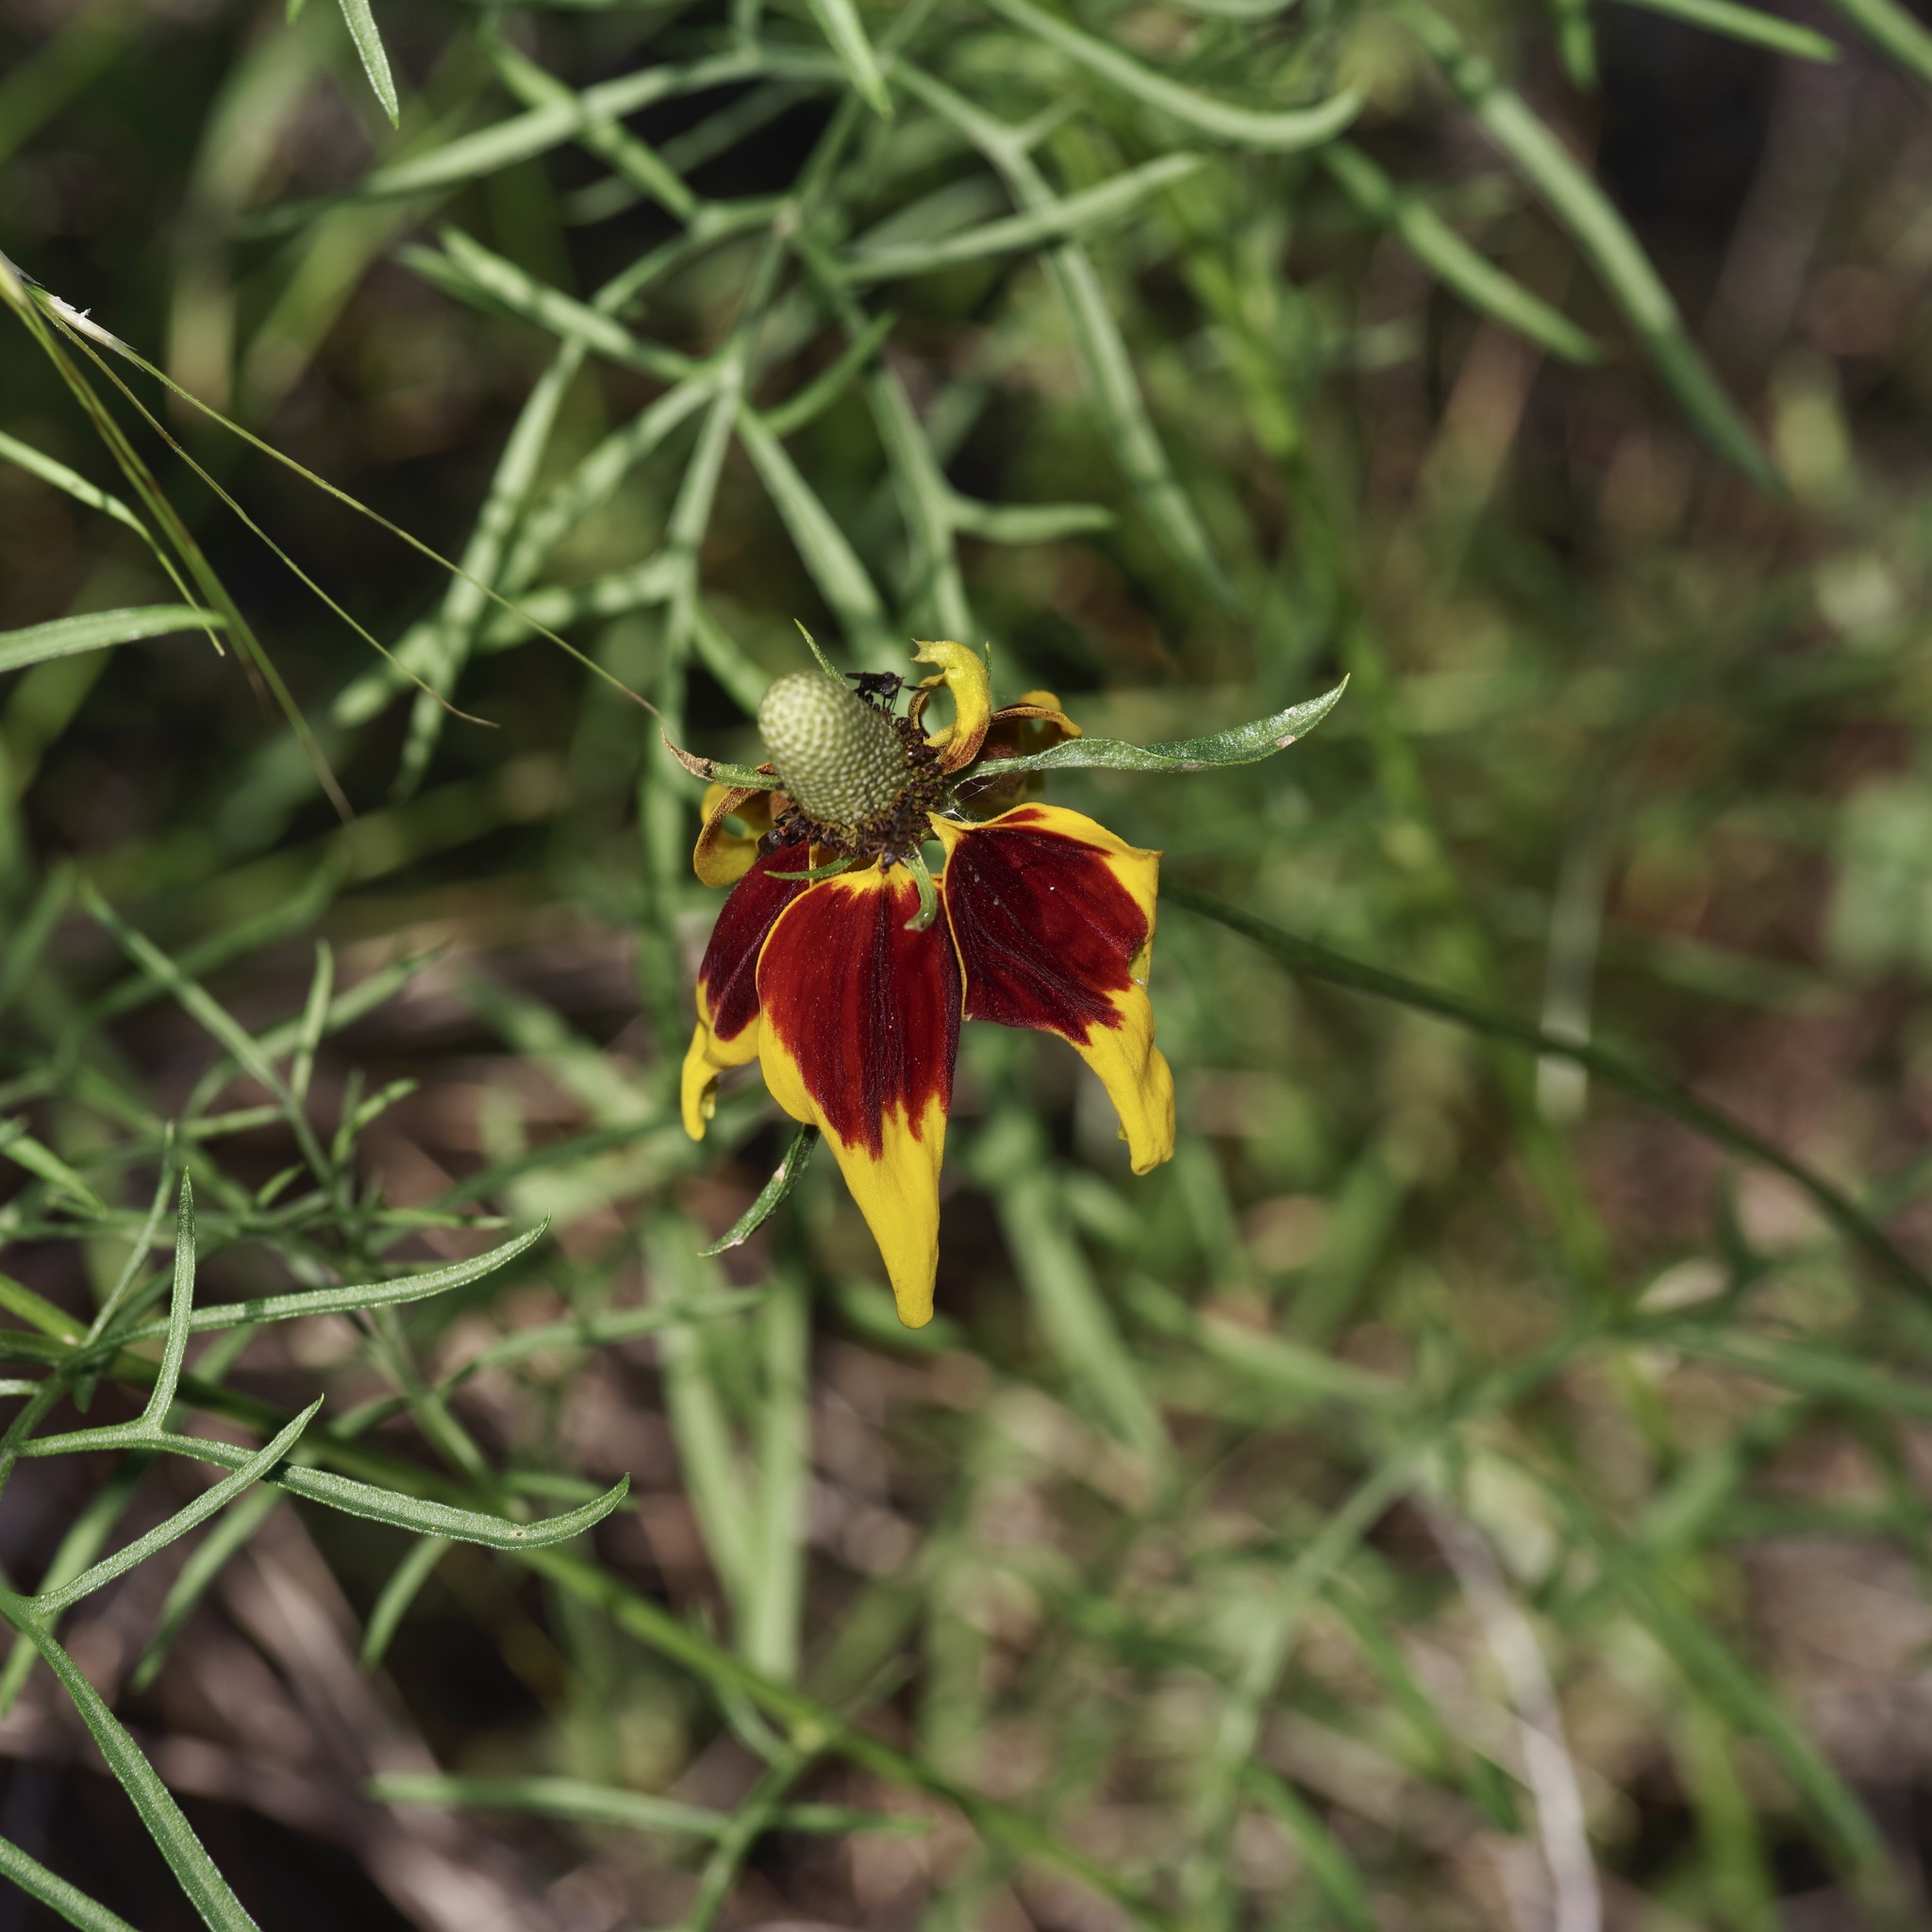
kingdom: Plantae
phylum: Tracheophyta
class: Magnoliopsida
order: Asterales
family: Asteraceae
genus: Ratibida
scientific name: Ratibida columnifera
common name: Prairie coneflower
